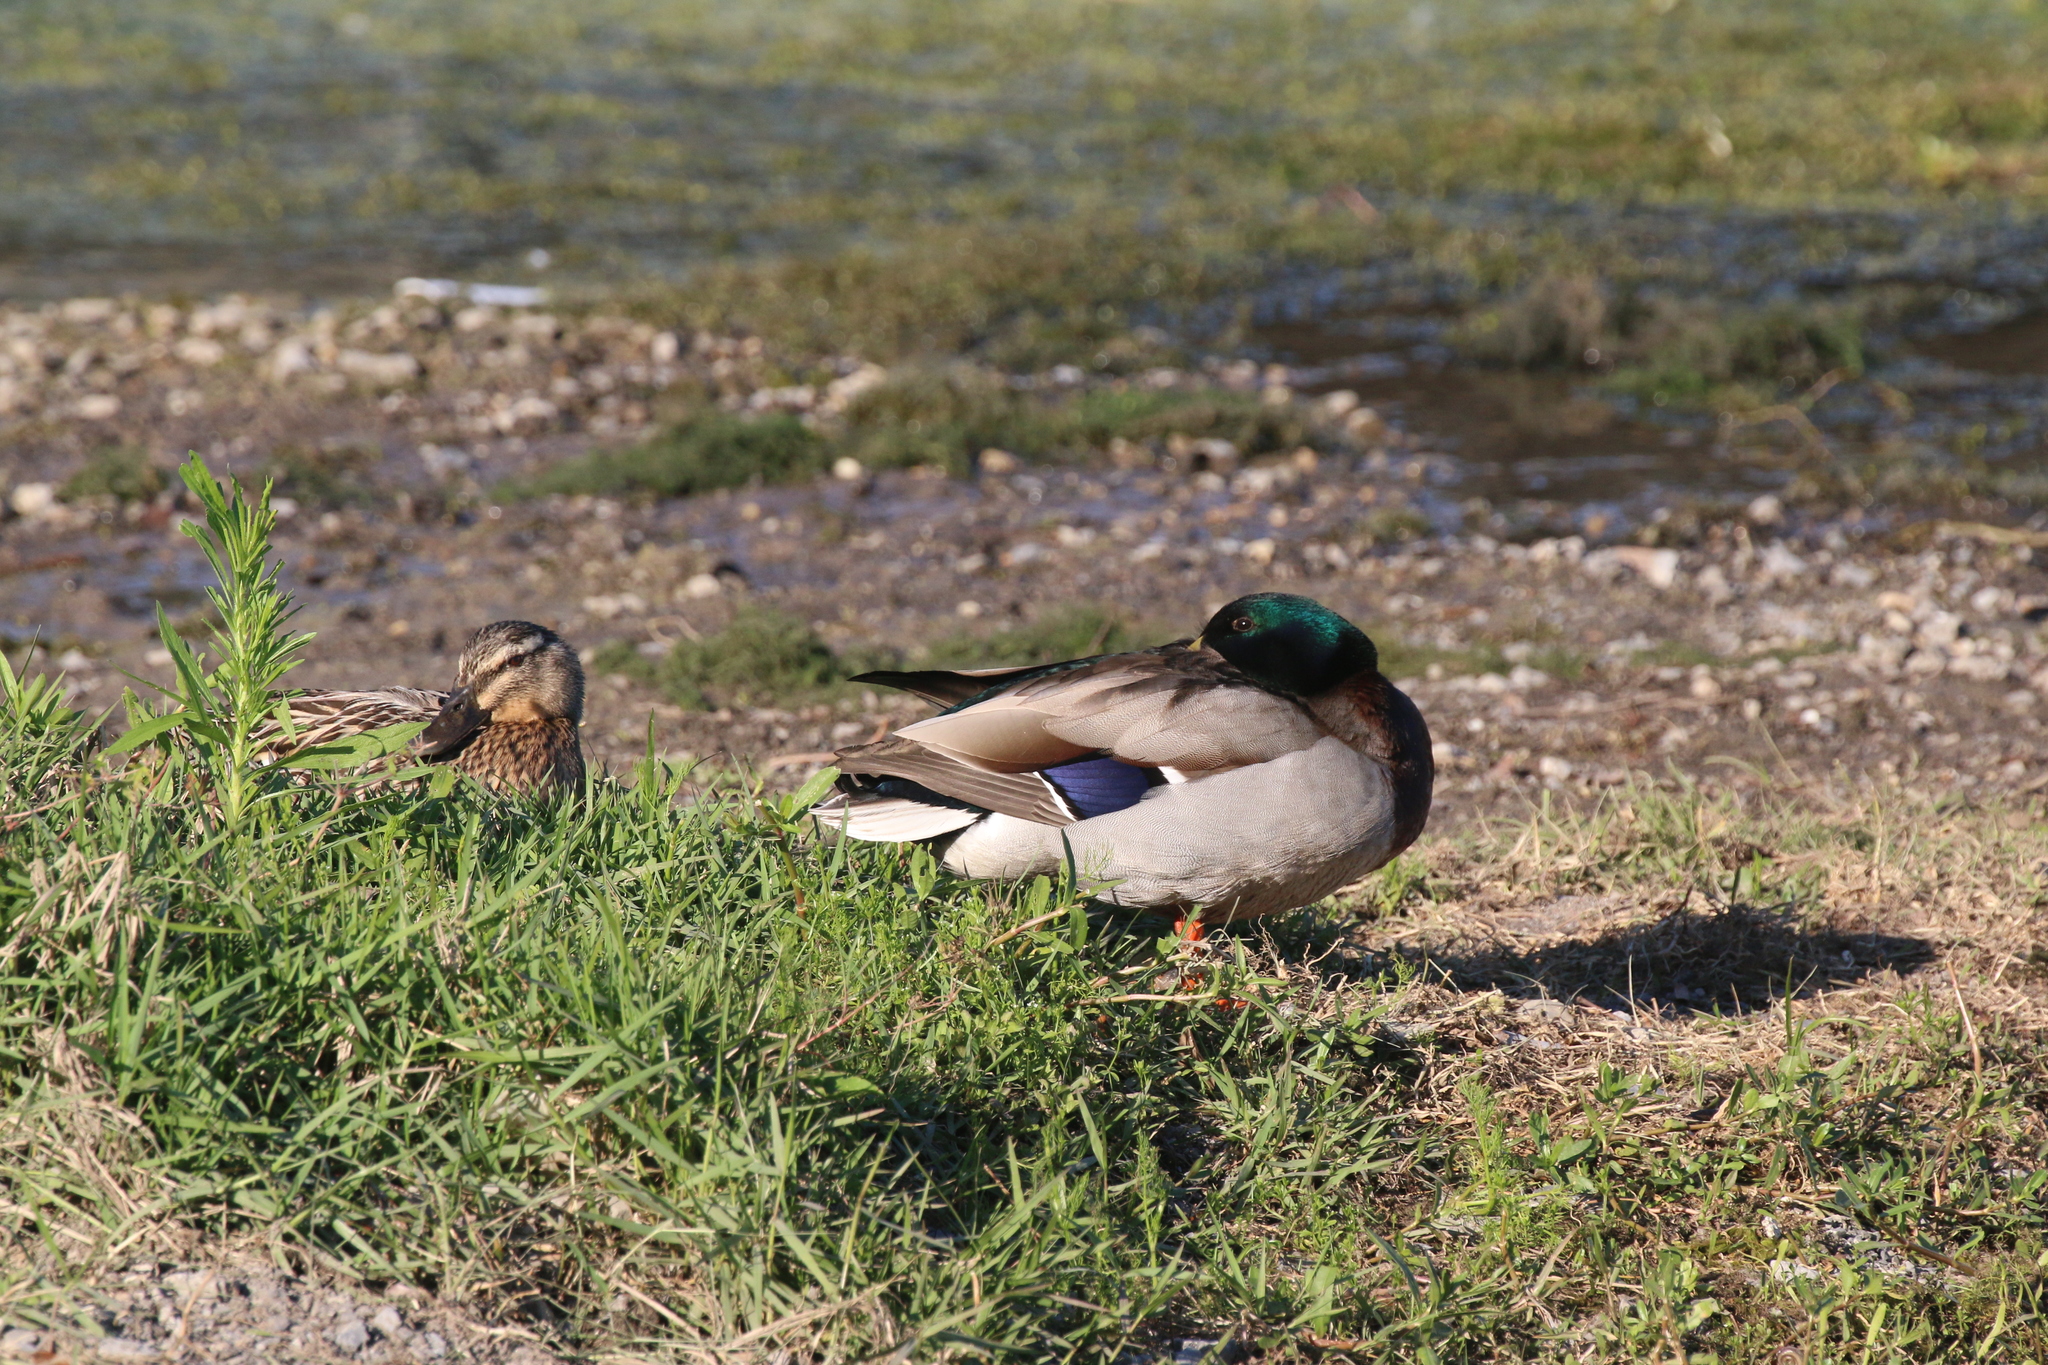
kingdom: Animalia
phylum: Chordata
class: Aves
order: Anseriformes
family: Anatidae
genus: Anas
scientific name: Anas platyrhynchos
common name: Mallard
